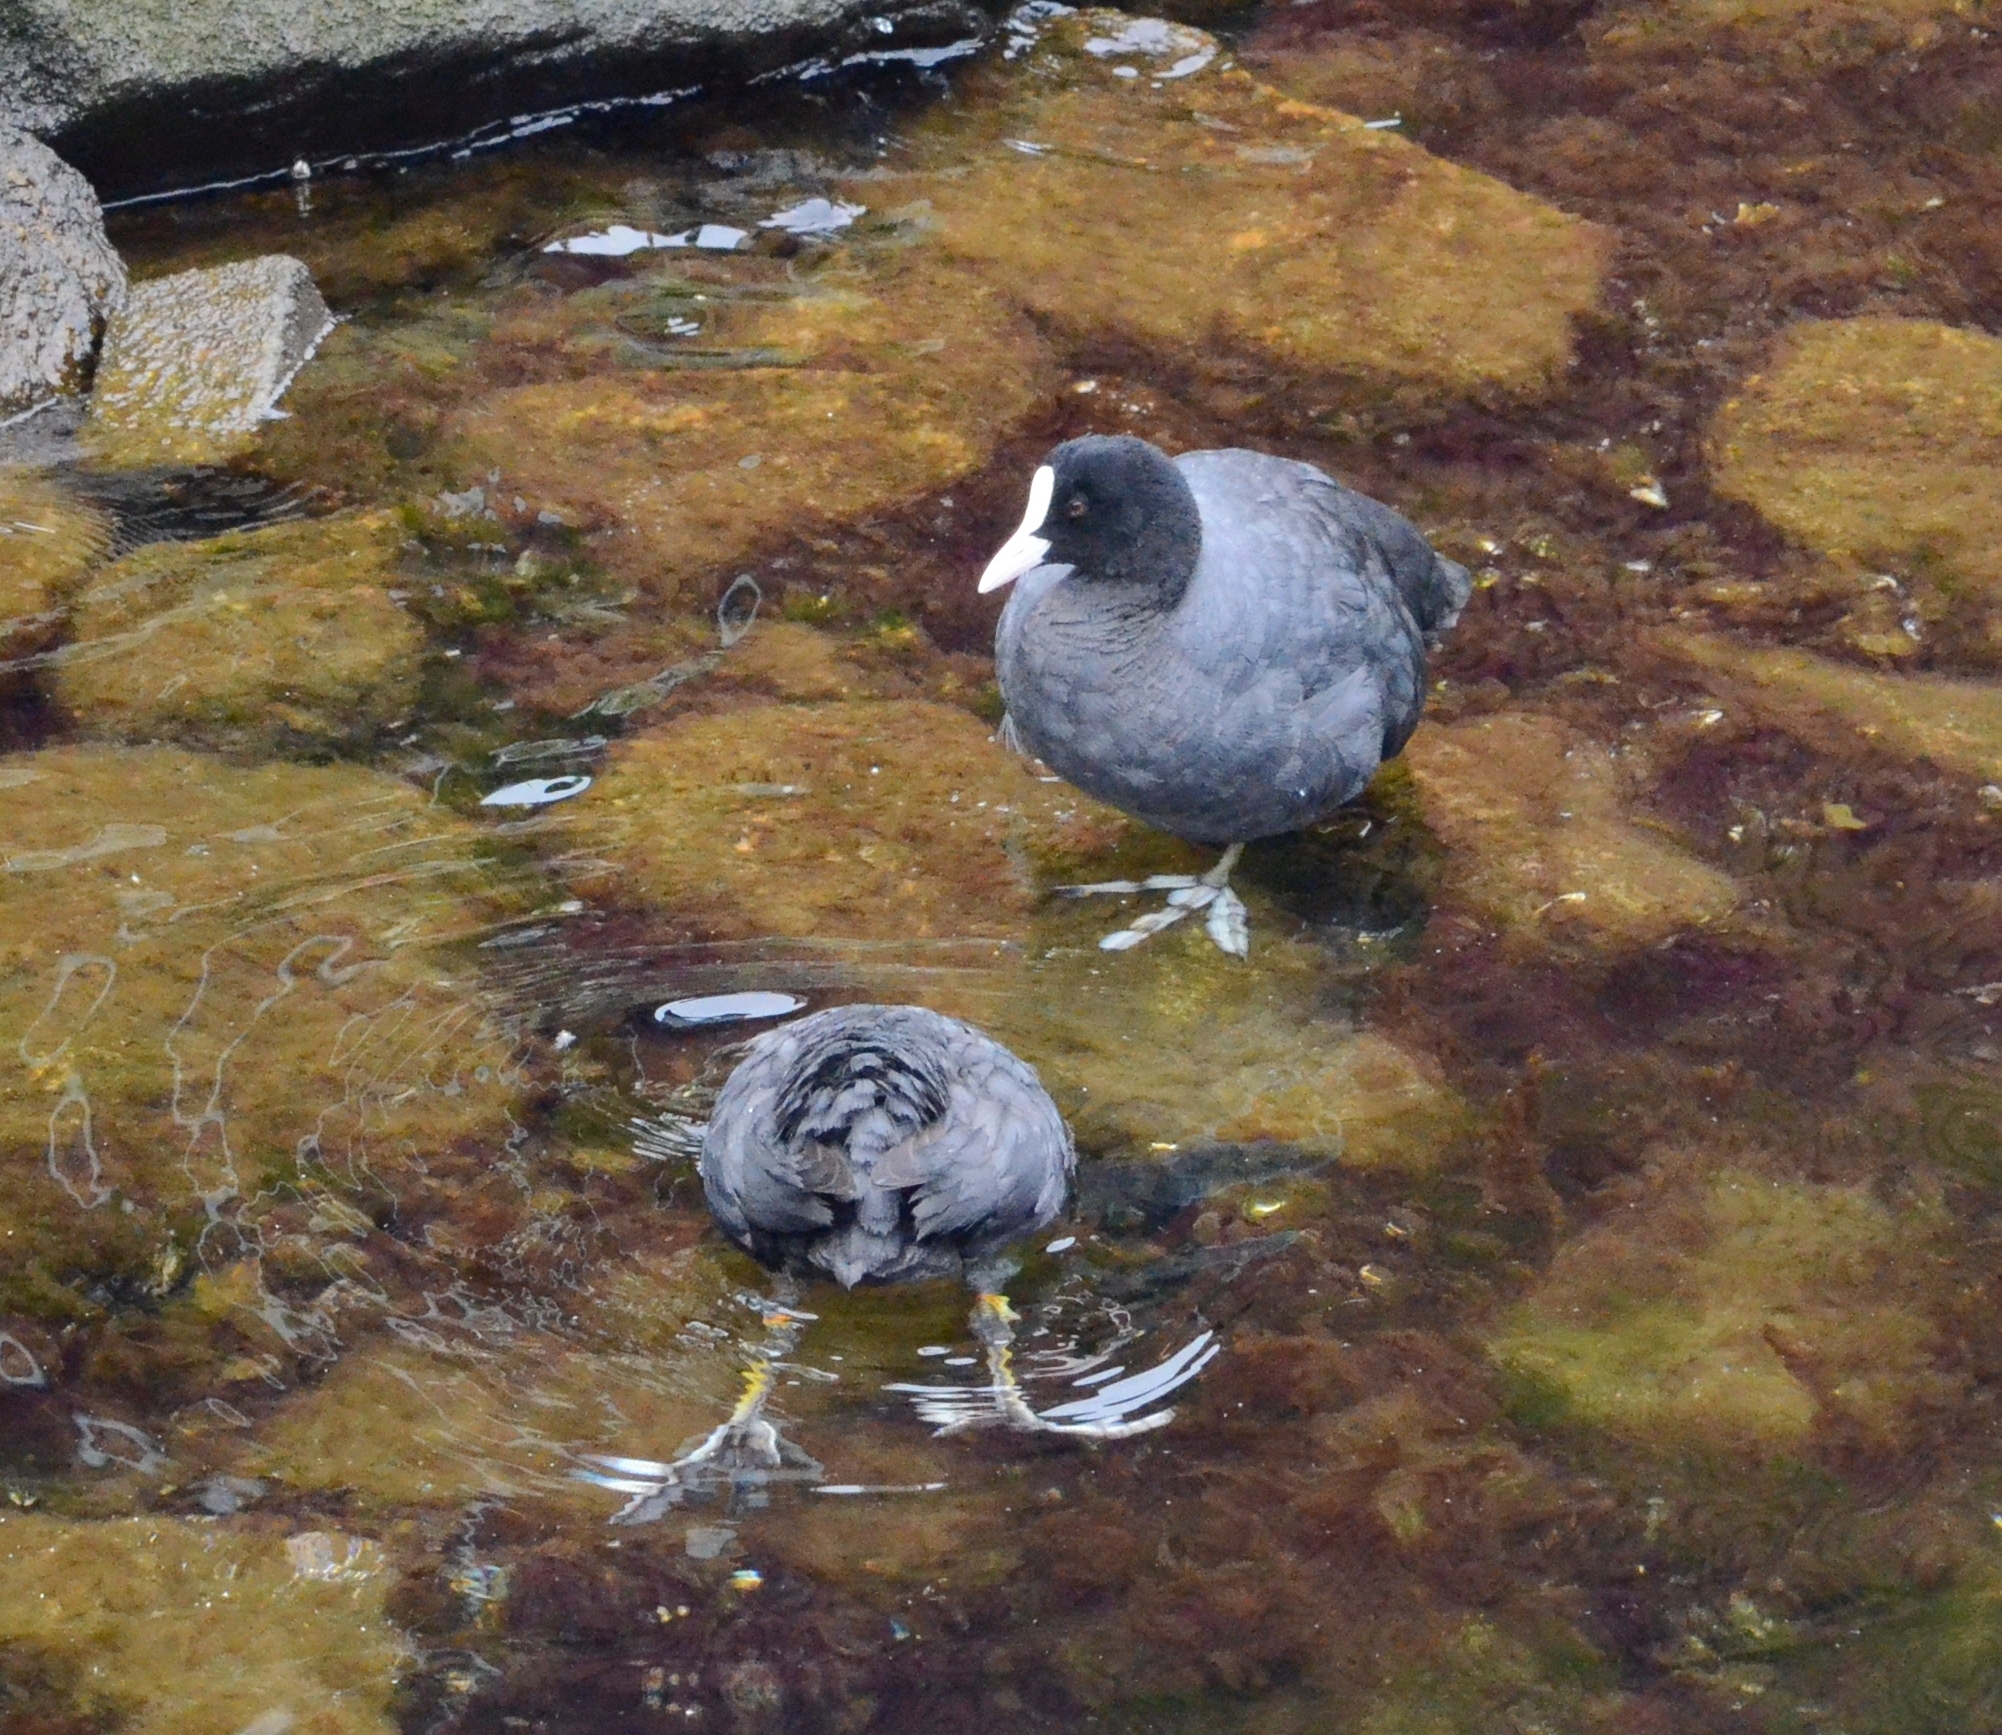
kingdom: Animalia
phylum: Chordata
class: Aves
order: Gruiformes
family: Rallidae
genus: Fulica
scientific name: Fulica atra
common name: Eurasian coot
